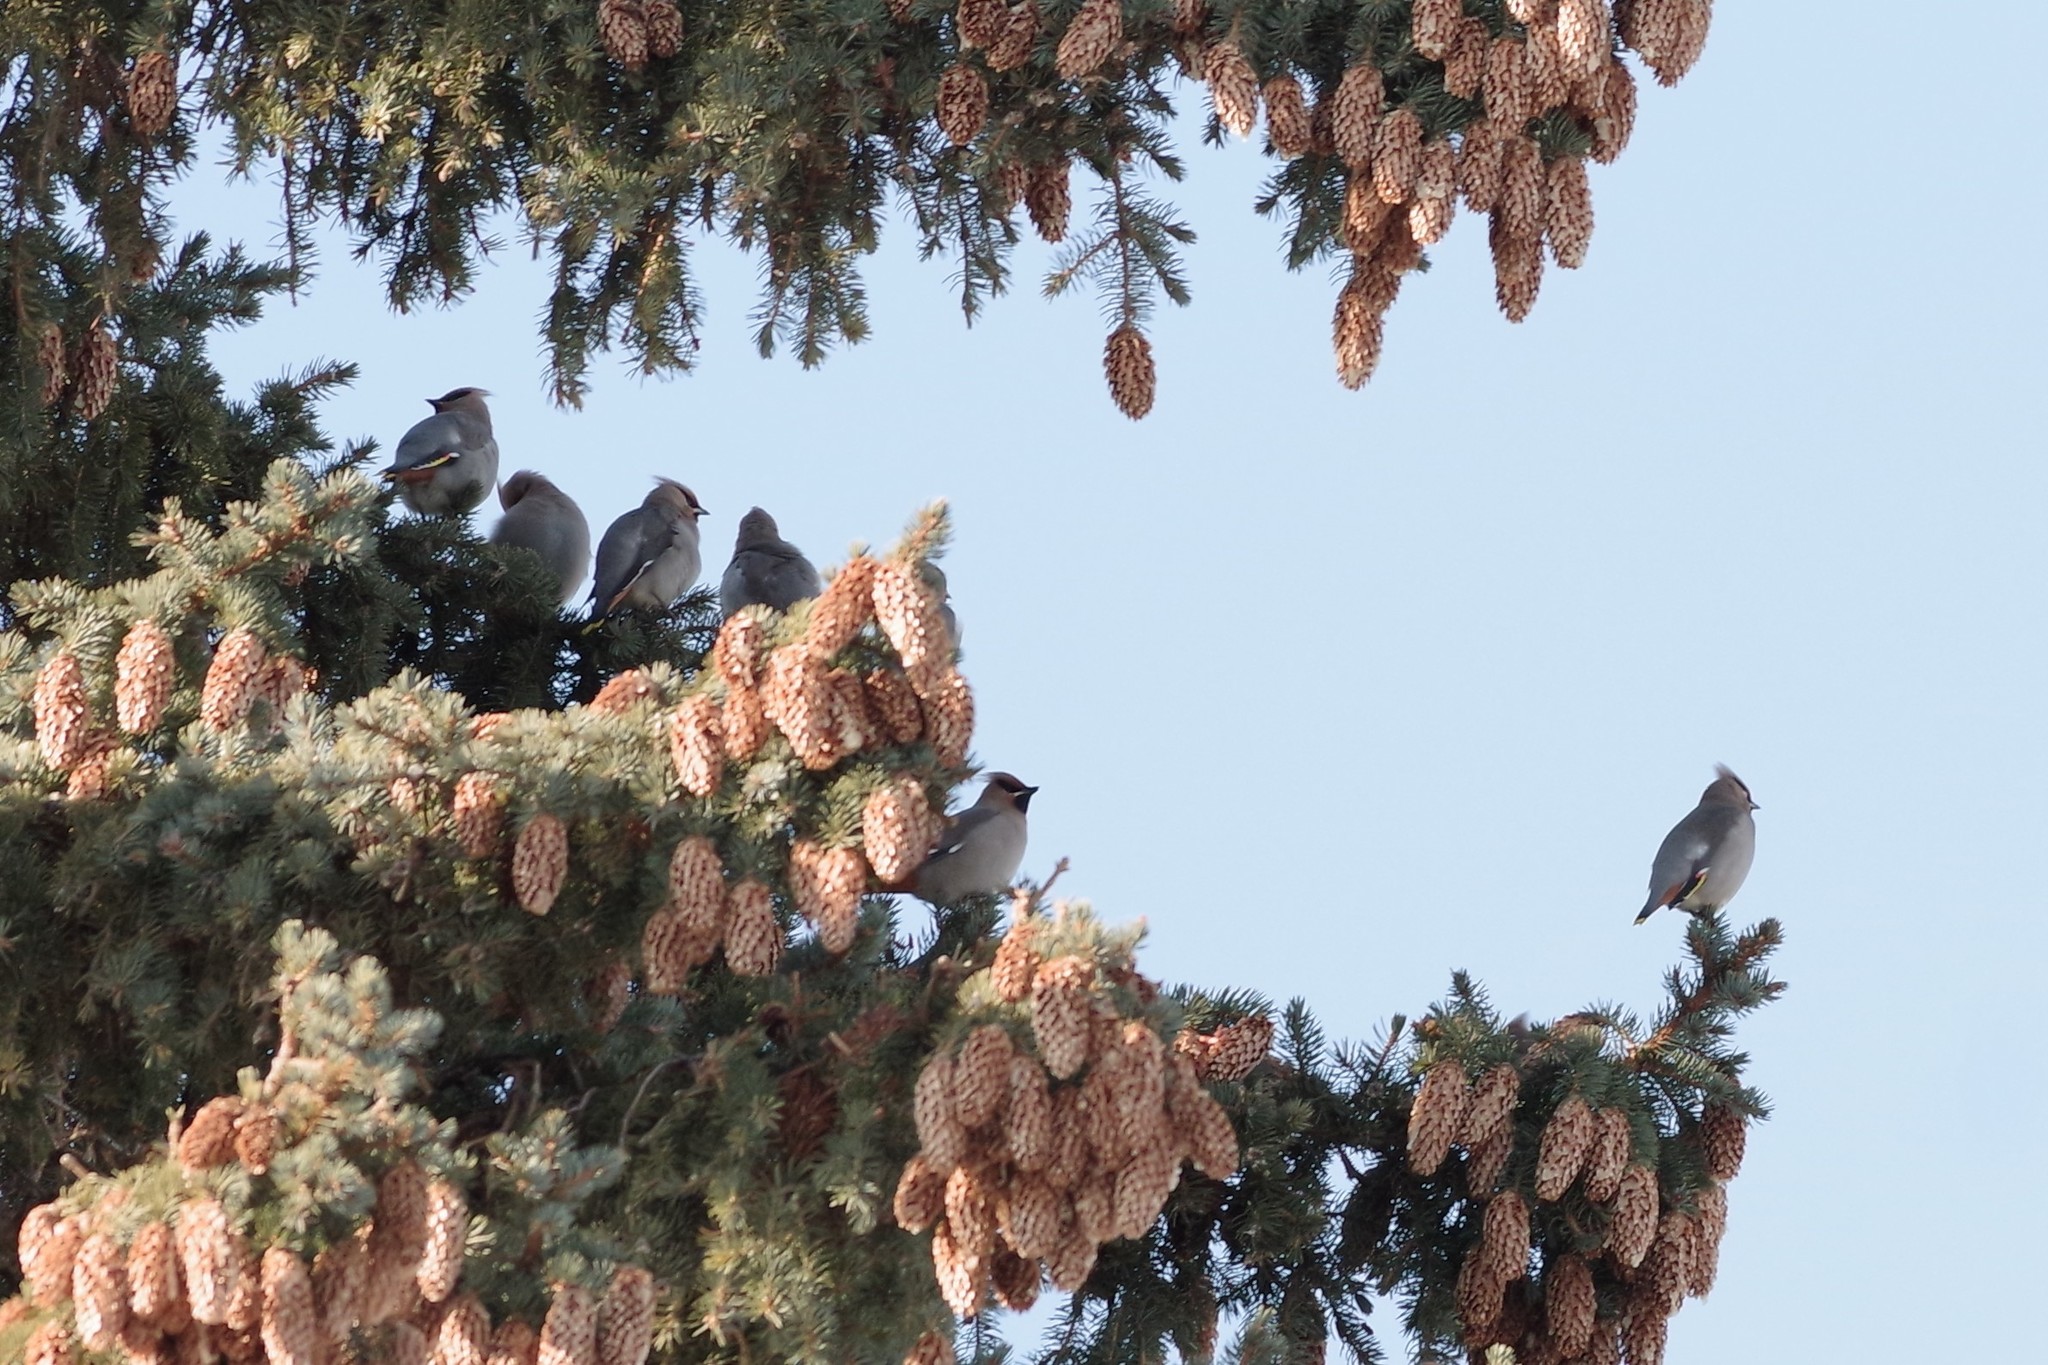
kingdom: Animalia
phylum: Chordata
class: Aves
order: Passeriformes
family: Bombycillidae
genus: Bombycilla
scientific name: Bombycilla garrulus
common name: Bohemian waxwing
